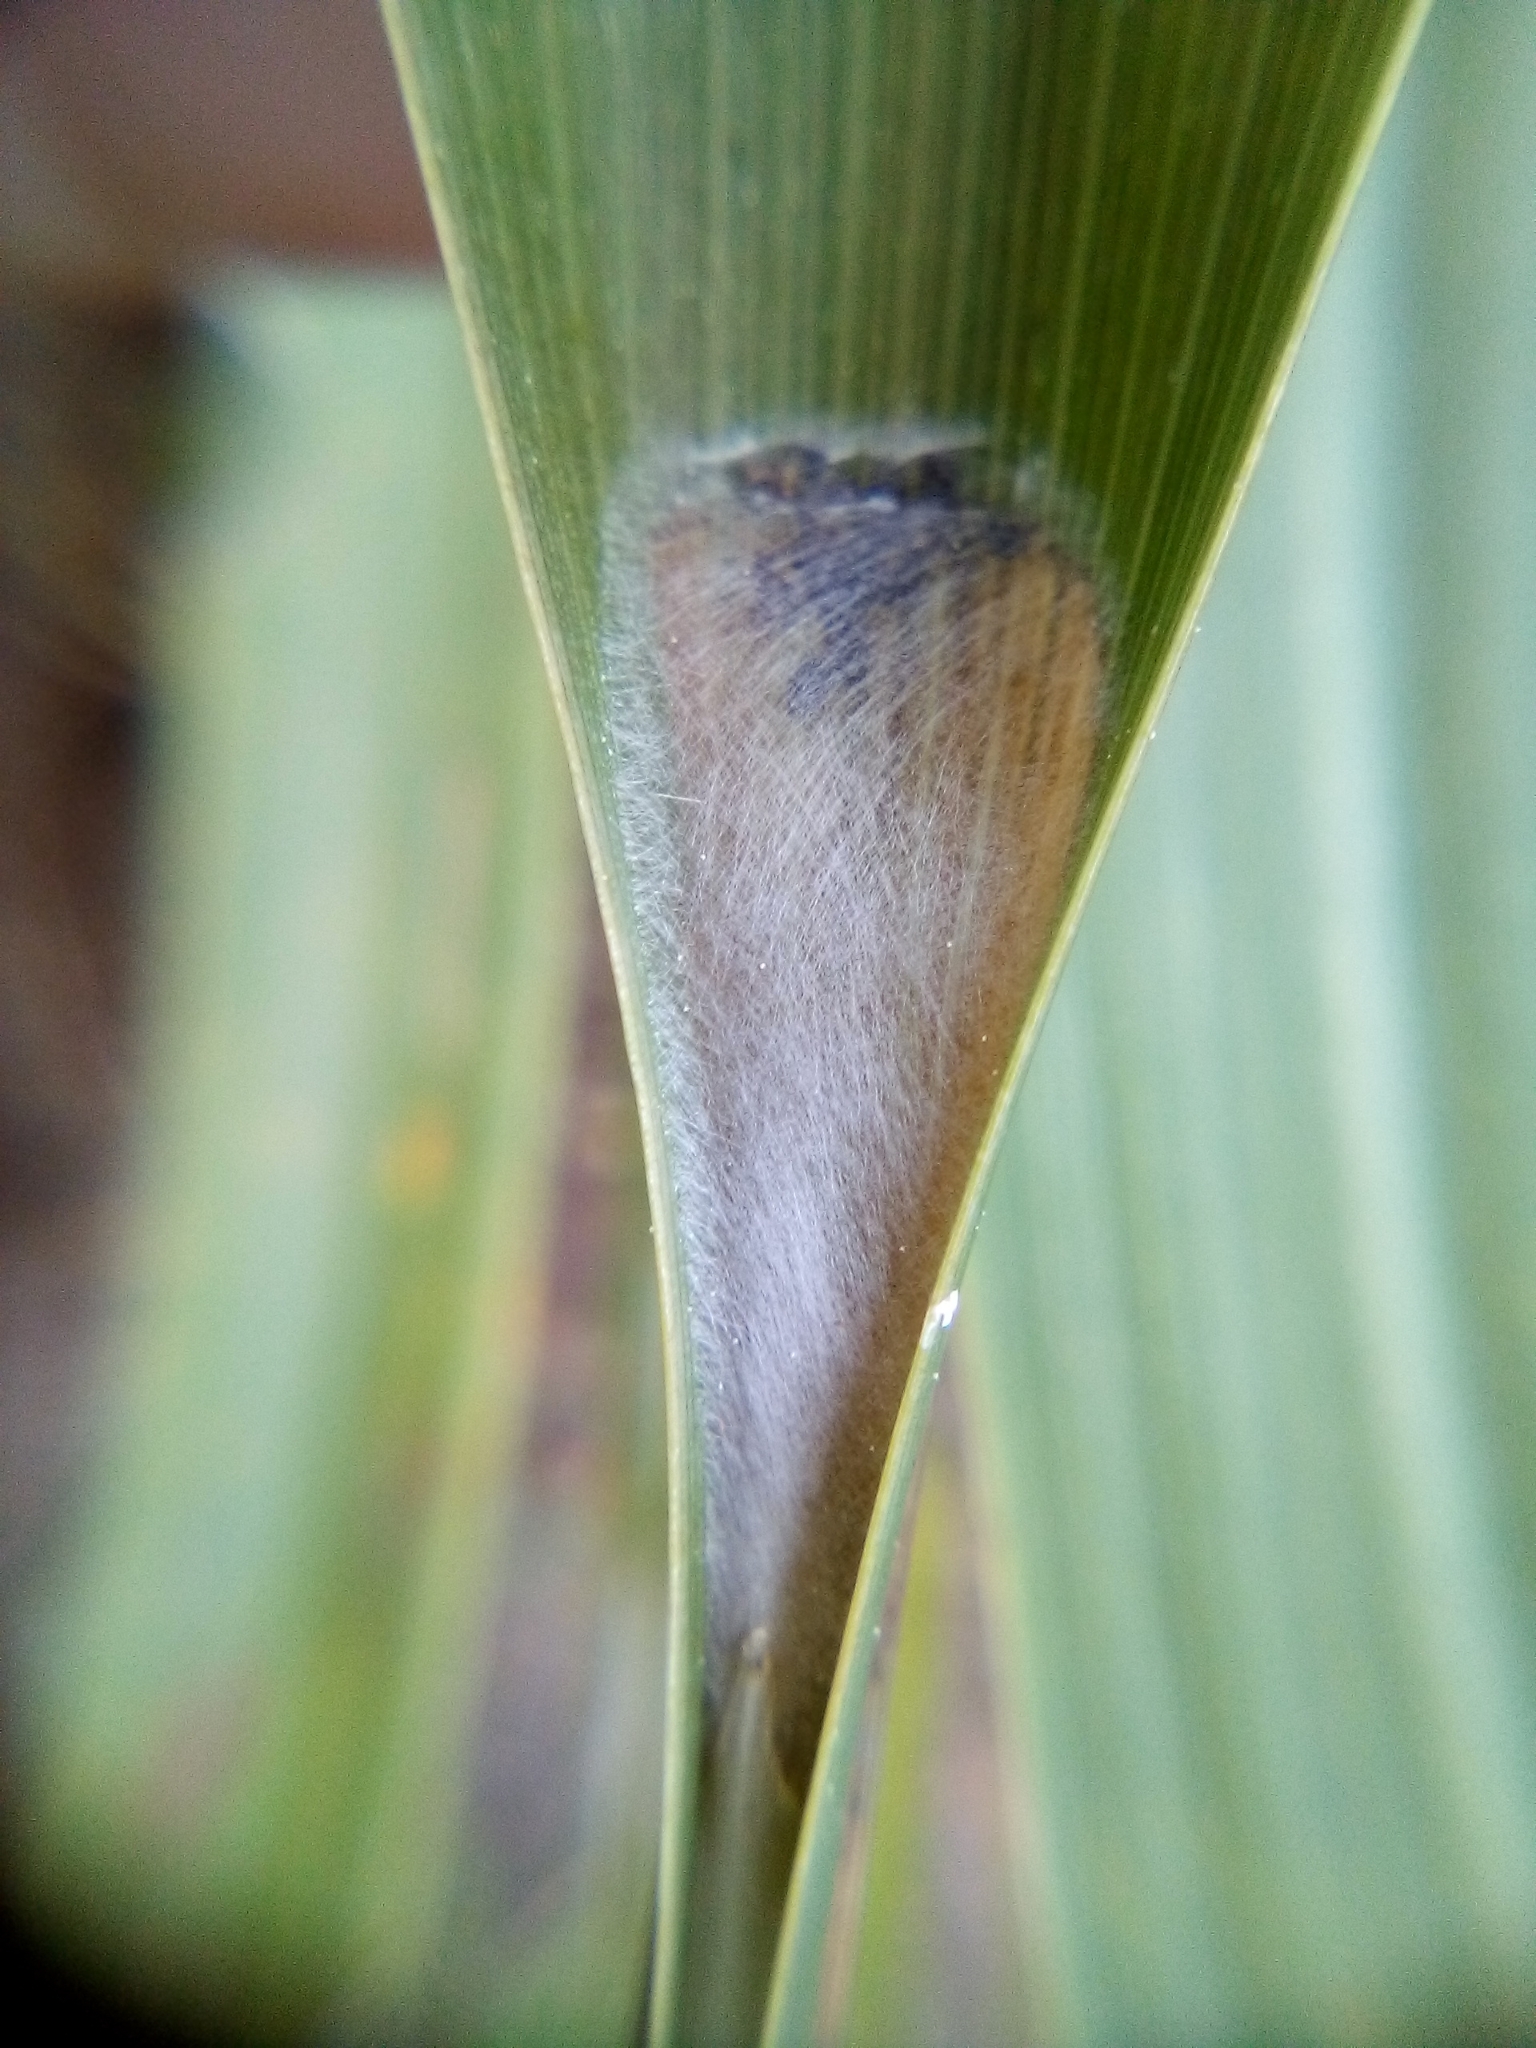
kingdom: Animalia
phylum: Arthropoda
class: Insecta
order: Lepidoptera
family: Tortricidae
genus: Catamacta
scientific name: Catamacta lotinana
